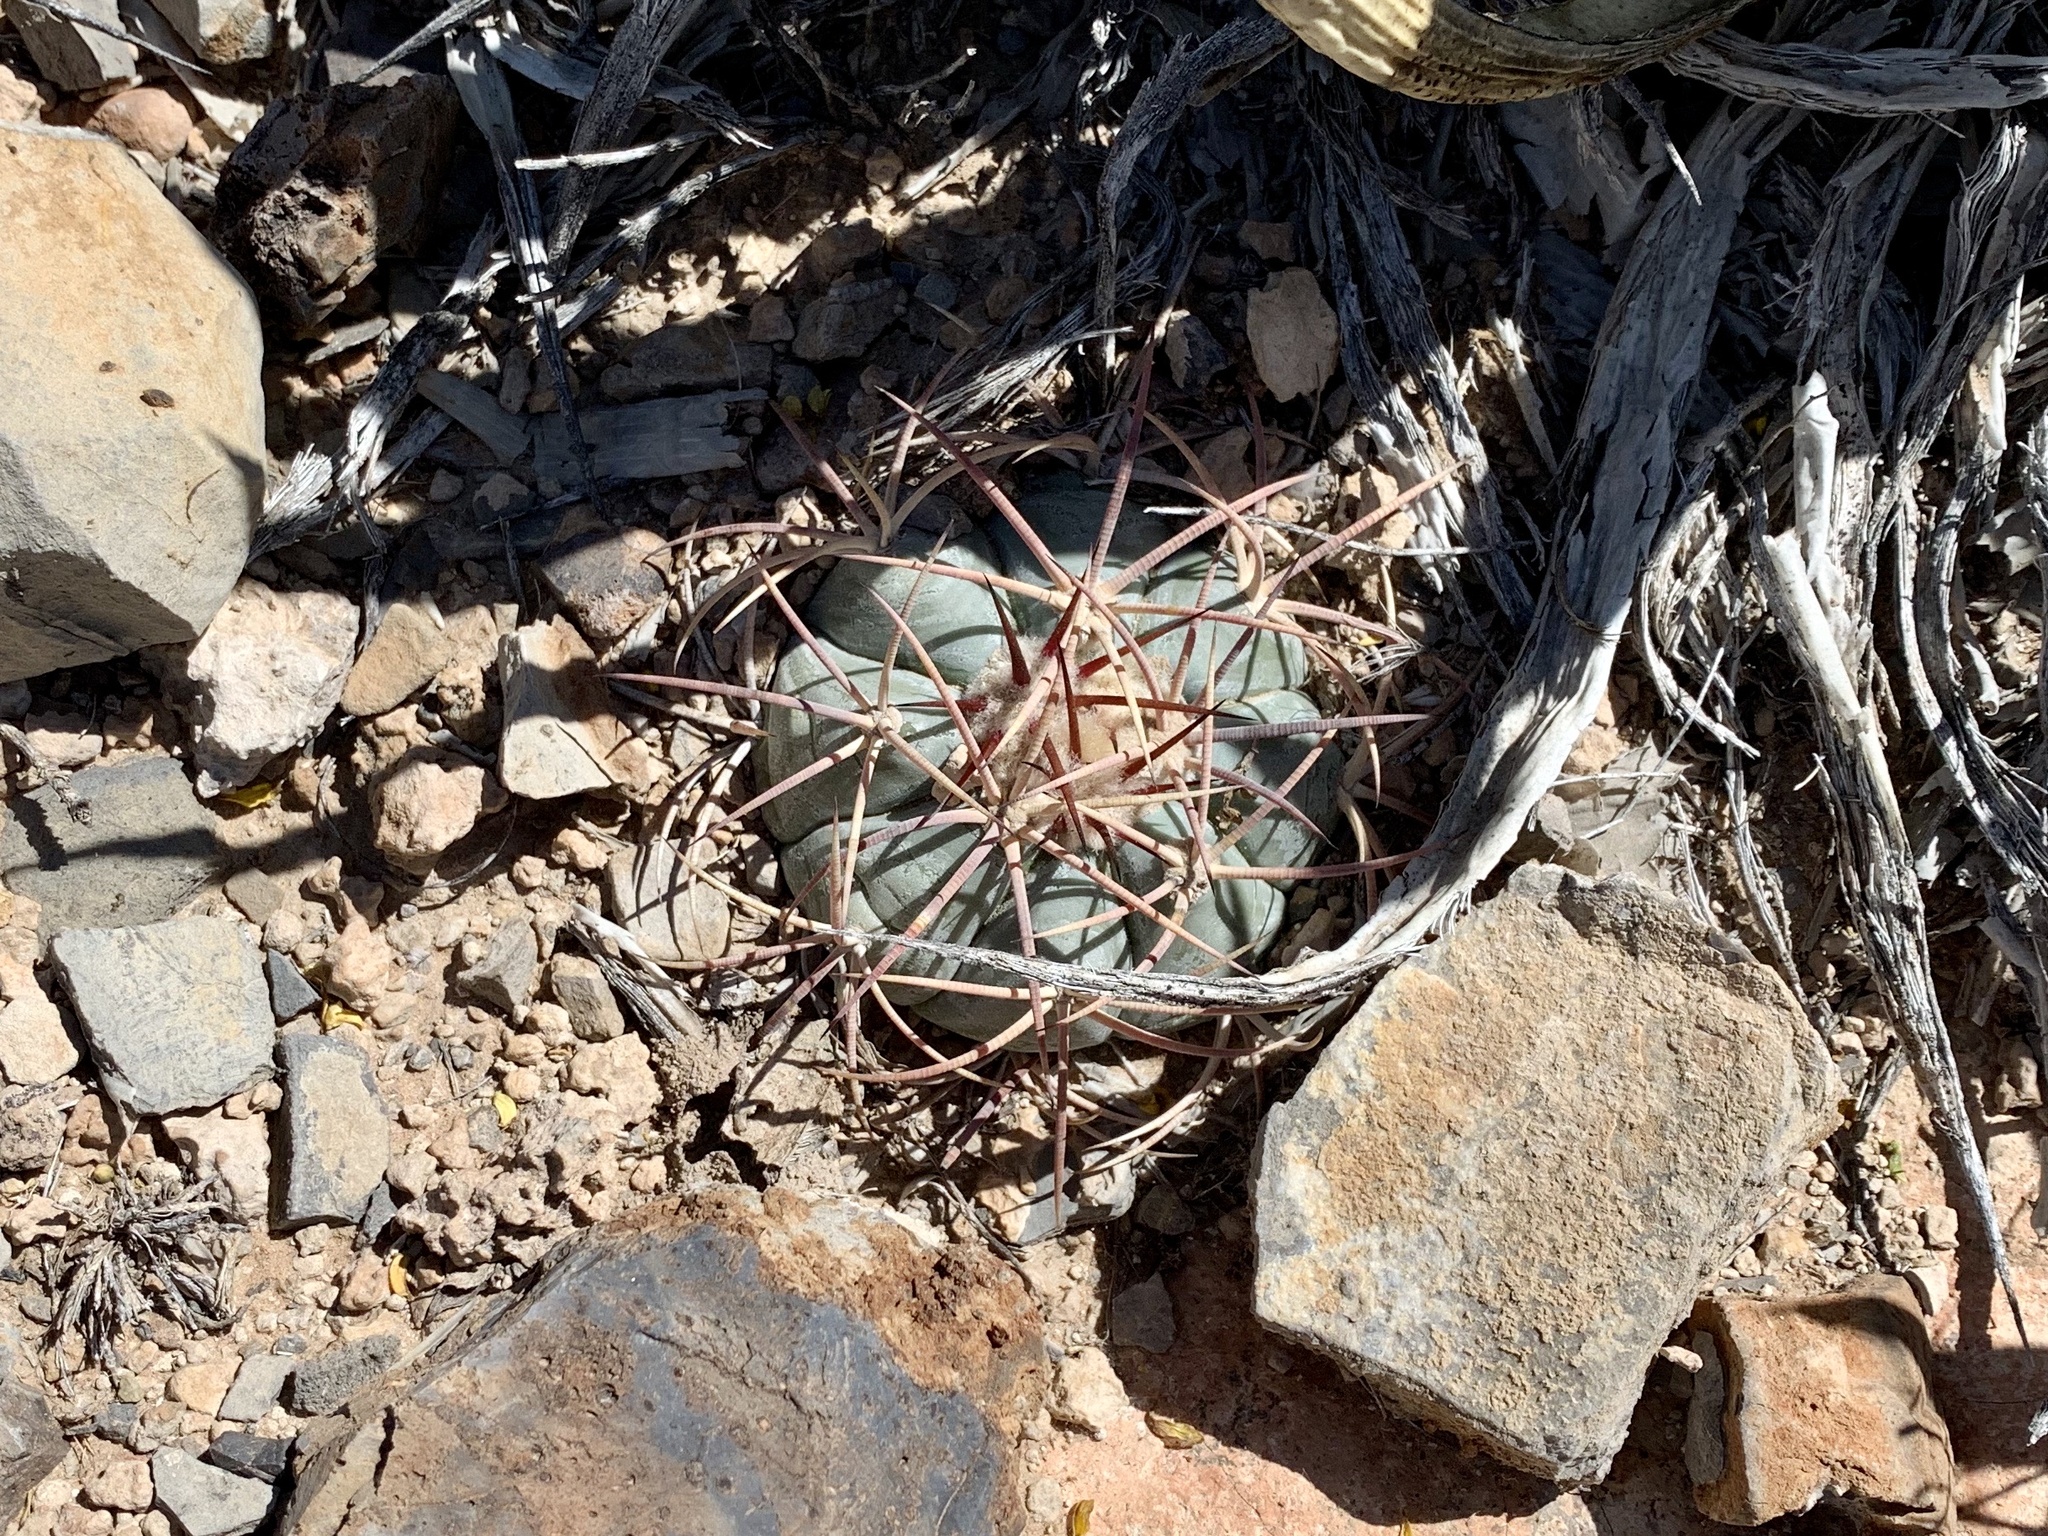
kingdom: Plantae
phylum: Tracheophyta
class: Magnoliopsida
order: Caryophyllales
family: Cactaceae
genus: Echinocactus
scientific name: Echinocactus horizonthalonius
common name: Devilshead
